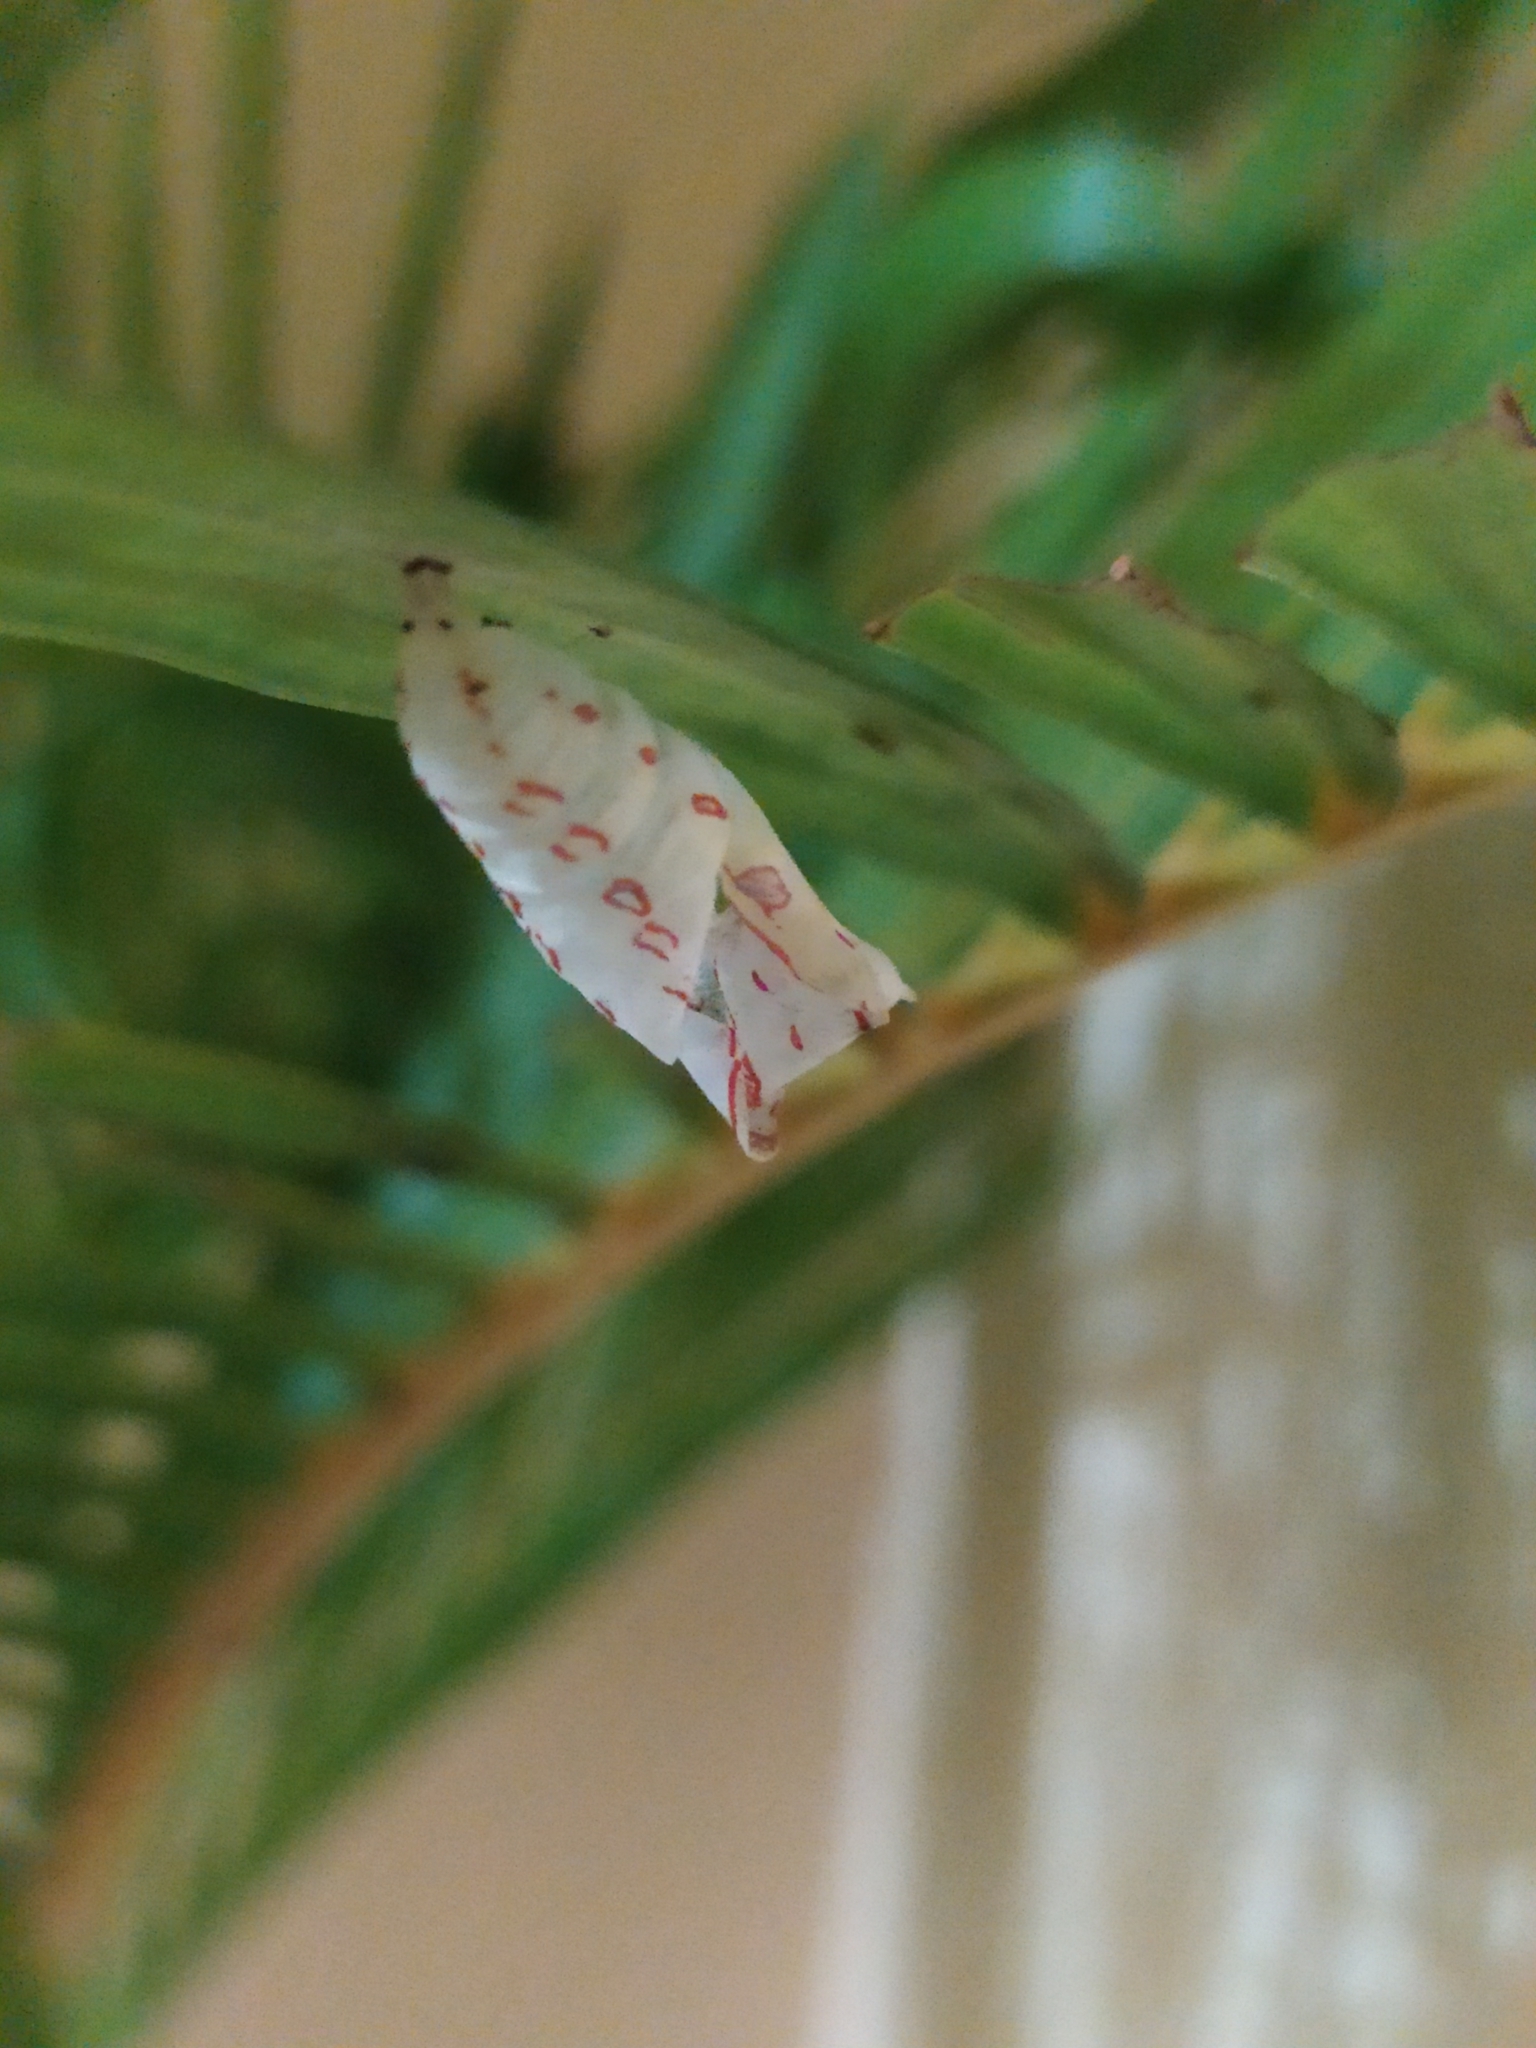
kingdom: Animalia
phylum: Arthropoda
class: Insecta
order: Lepidoptera
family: Nymphalidae
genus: Elymnias
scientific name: Elymnias caudata
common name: Tailed palmfly
